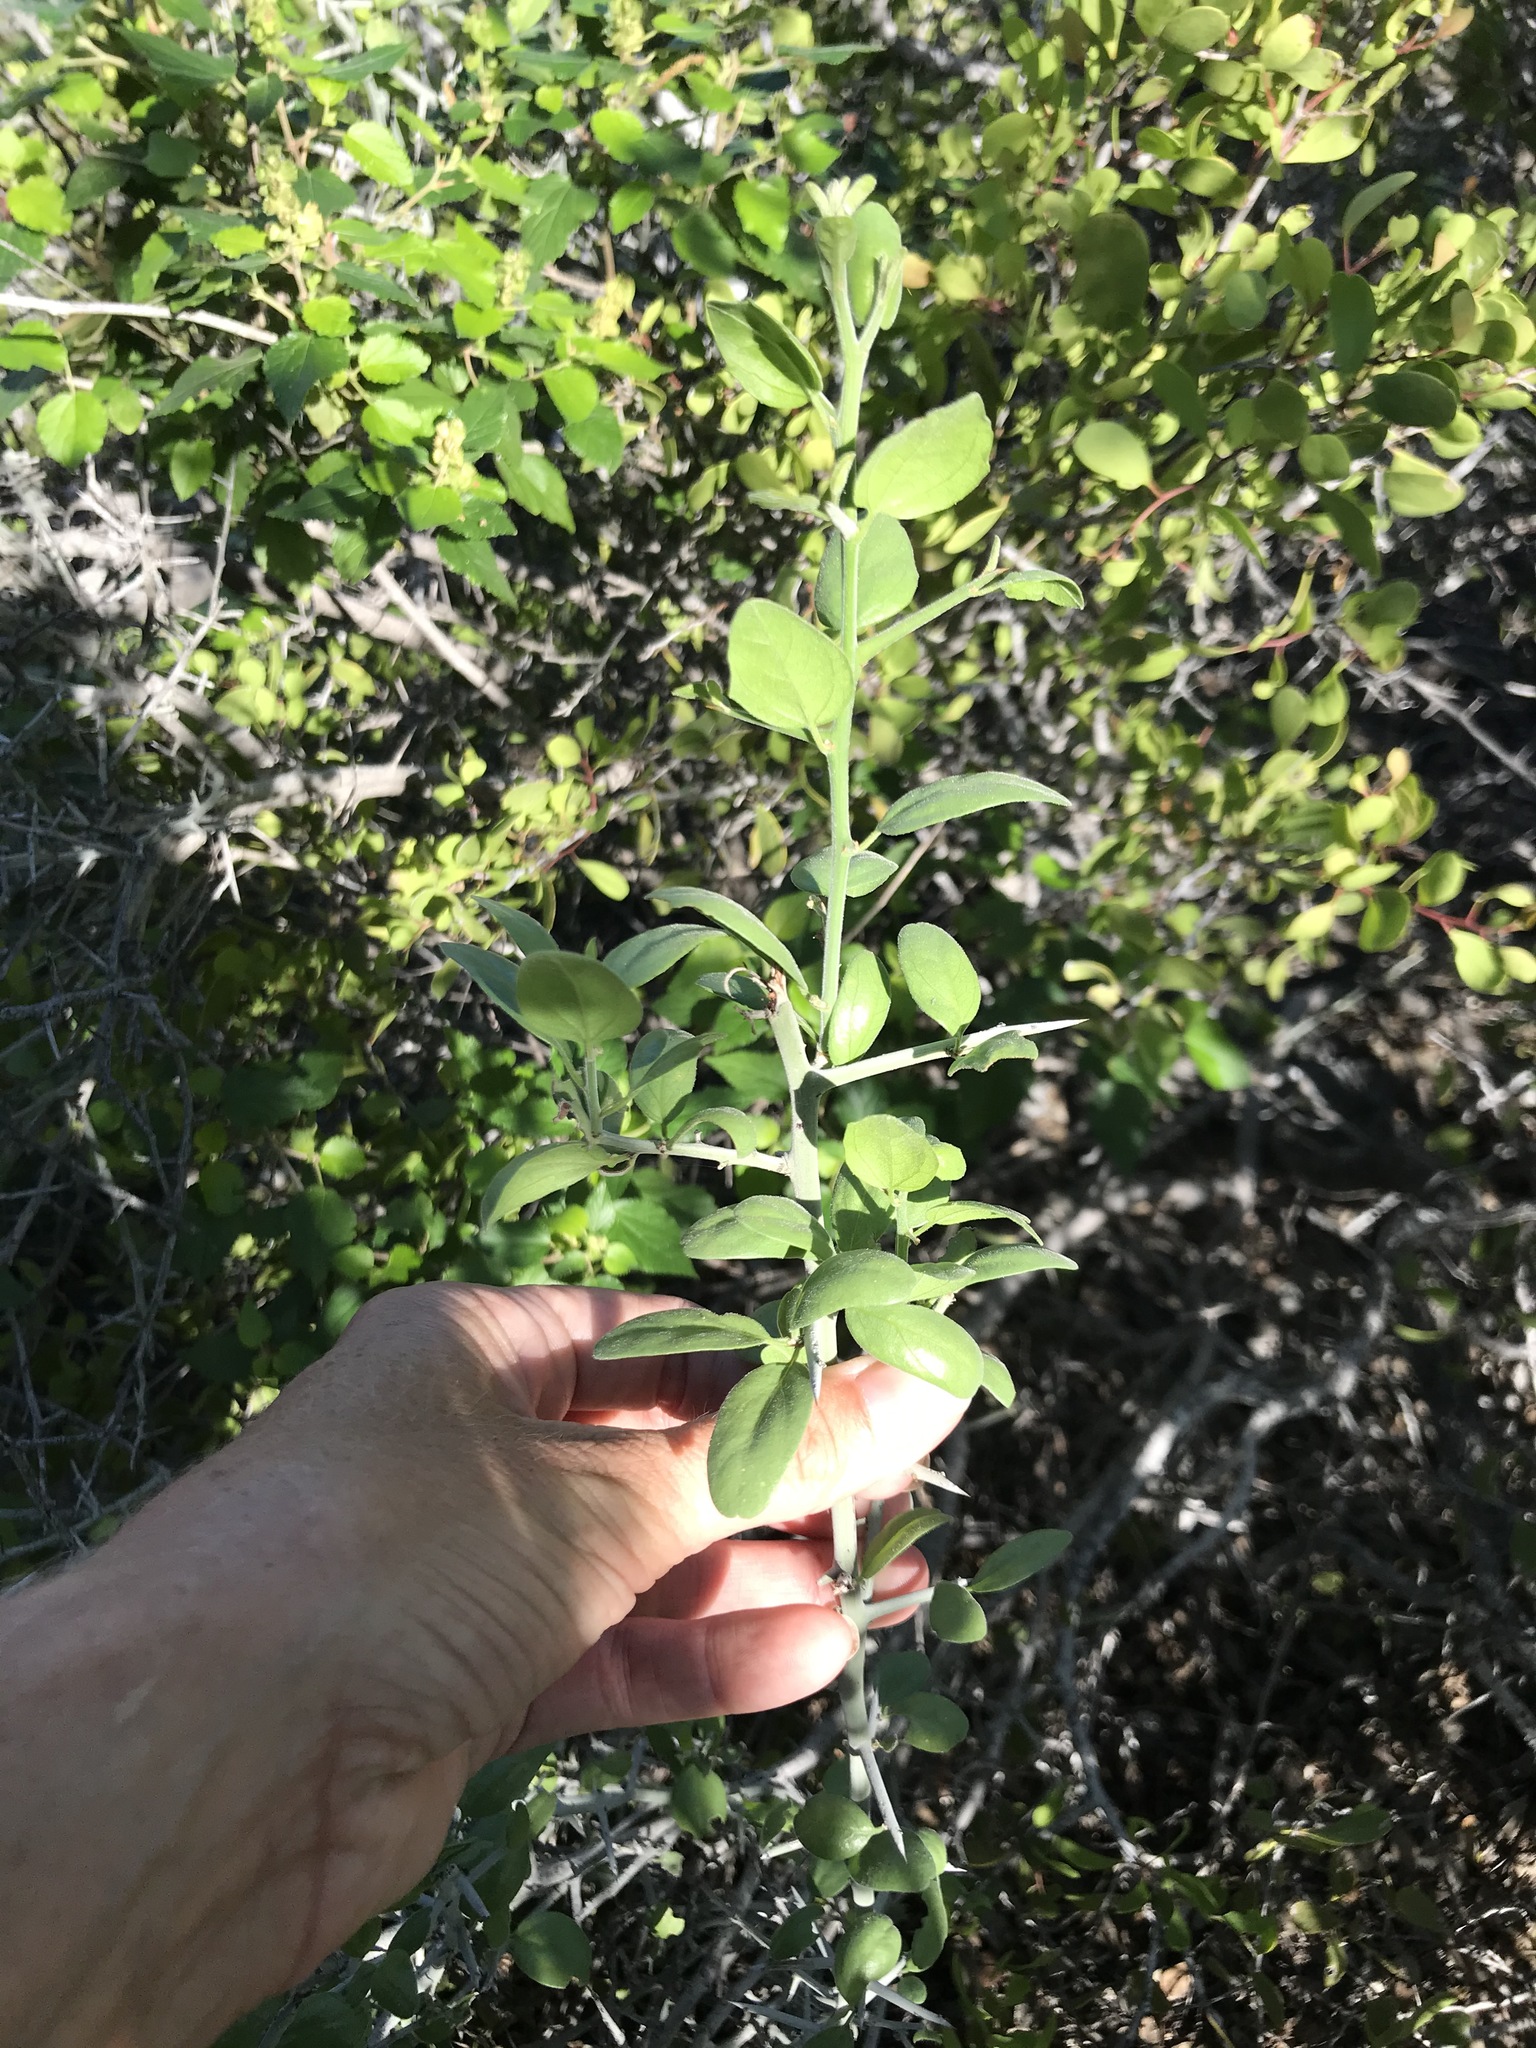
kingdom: Plantae
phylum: Tracheophyta
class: Magnoliopsida
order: Rosales
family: Rhamnaceae
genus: Sarcomphalus
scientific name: Sarcomphalus obtusifolius
